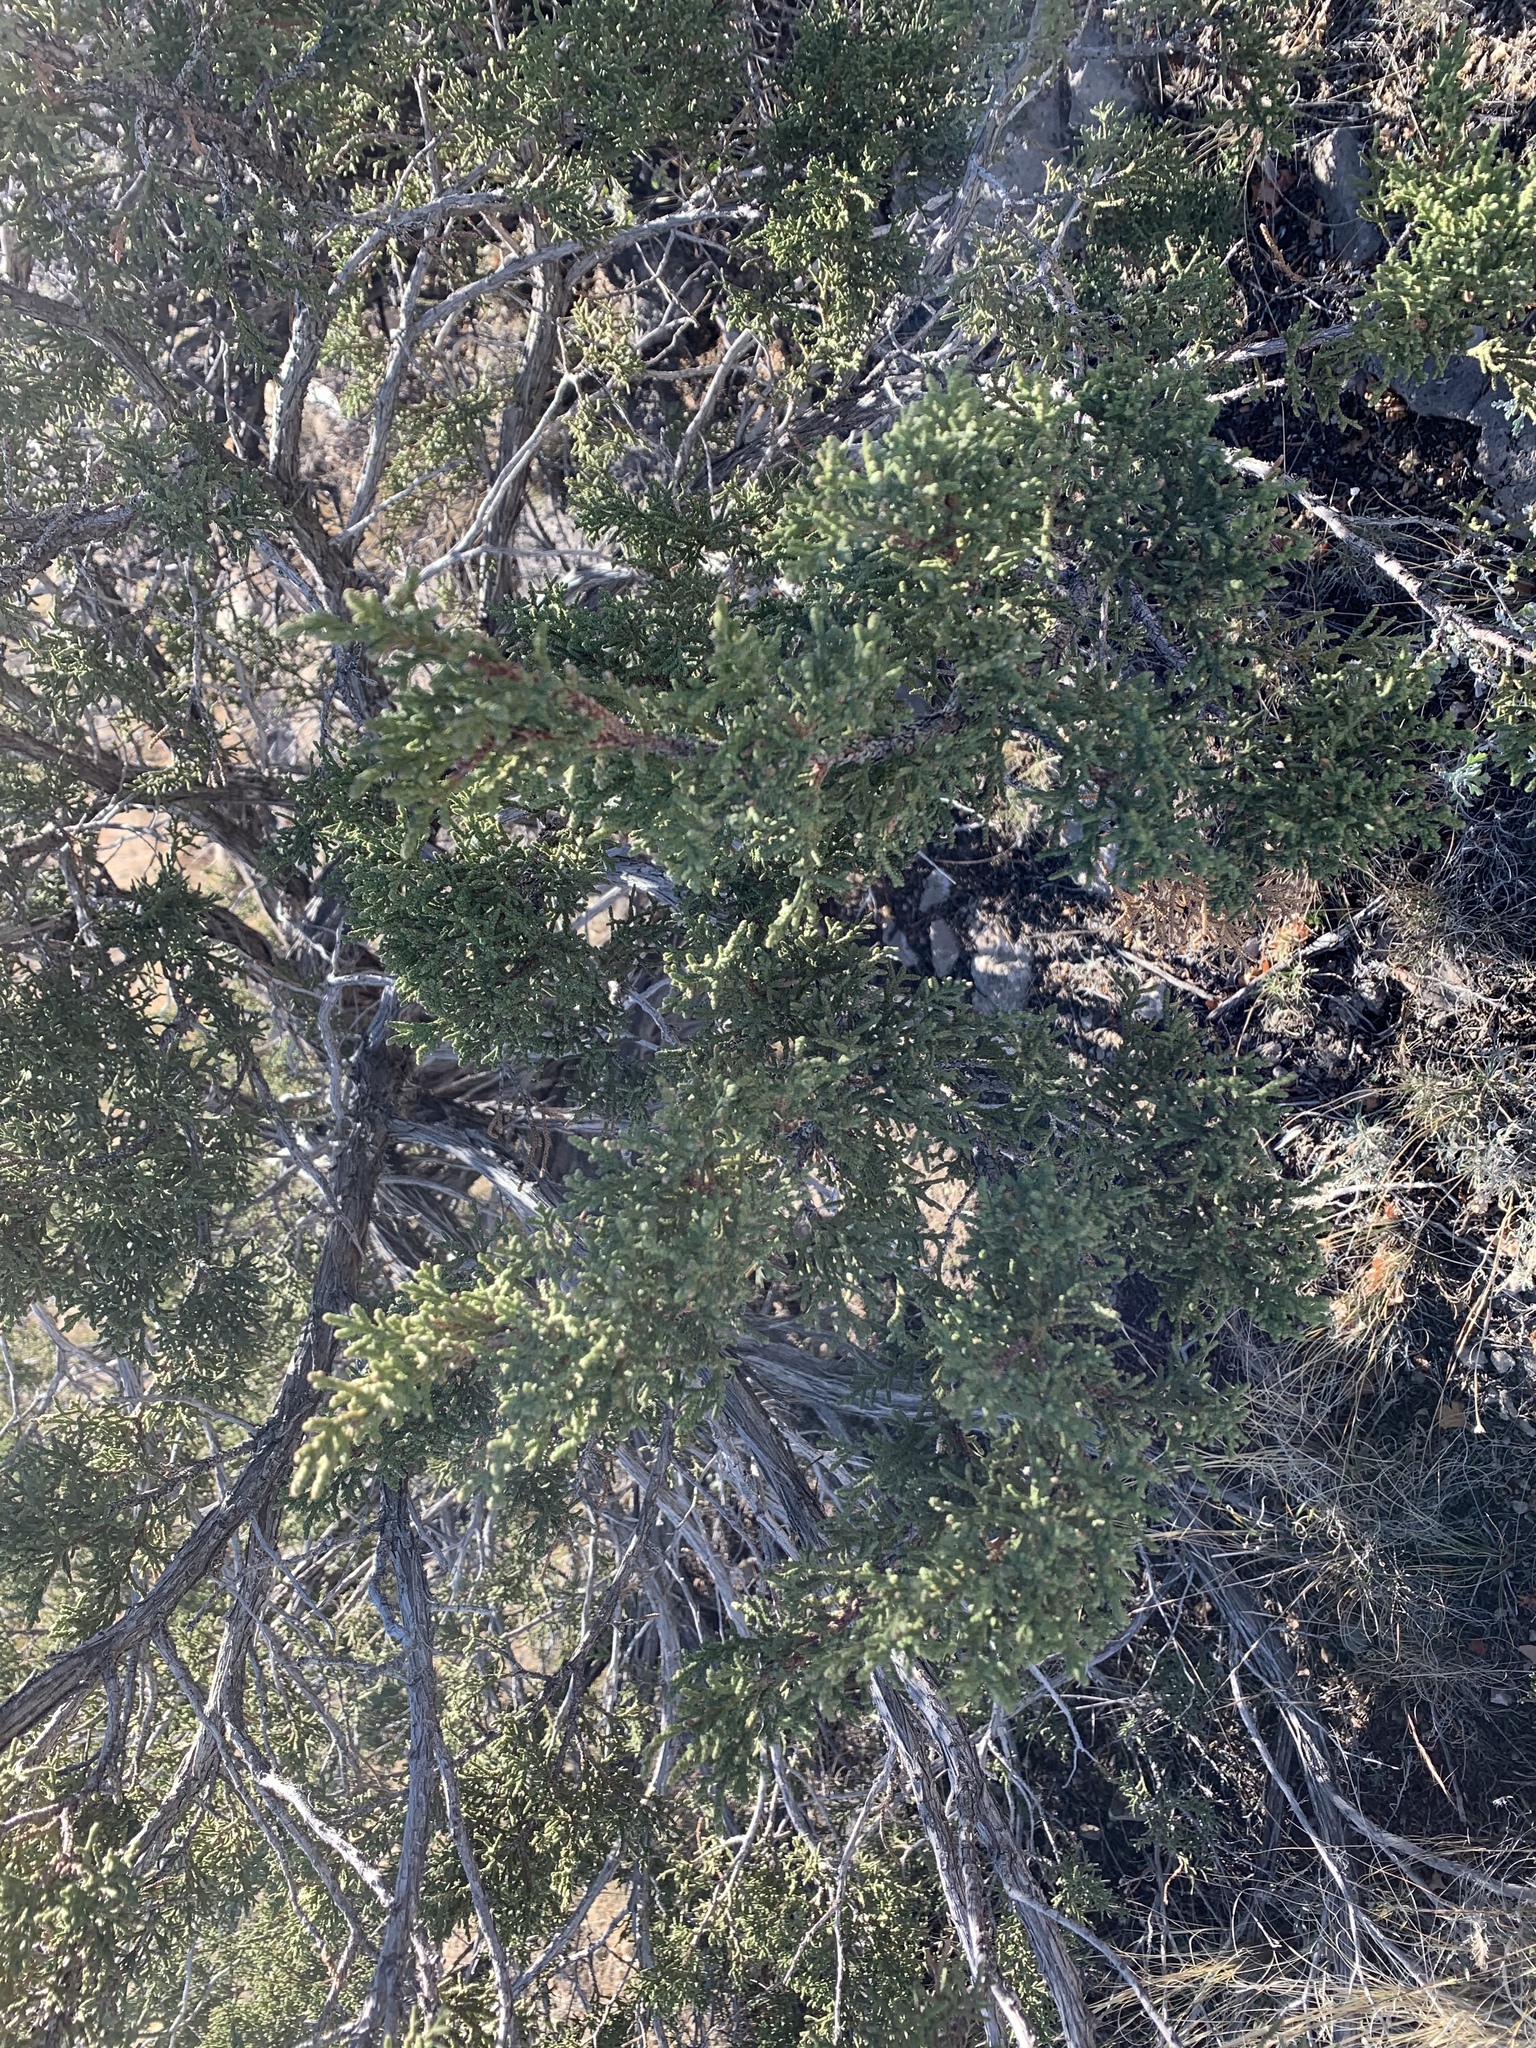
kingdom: Plantae
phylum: Tracheophyta
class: Pinopsida
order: Pinales
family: Cupressaceae
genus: Juniperus
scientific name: Juniperus monosperma
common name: One-seed juniper
